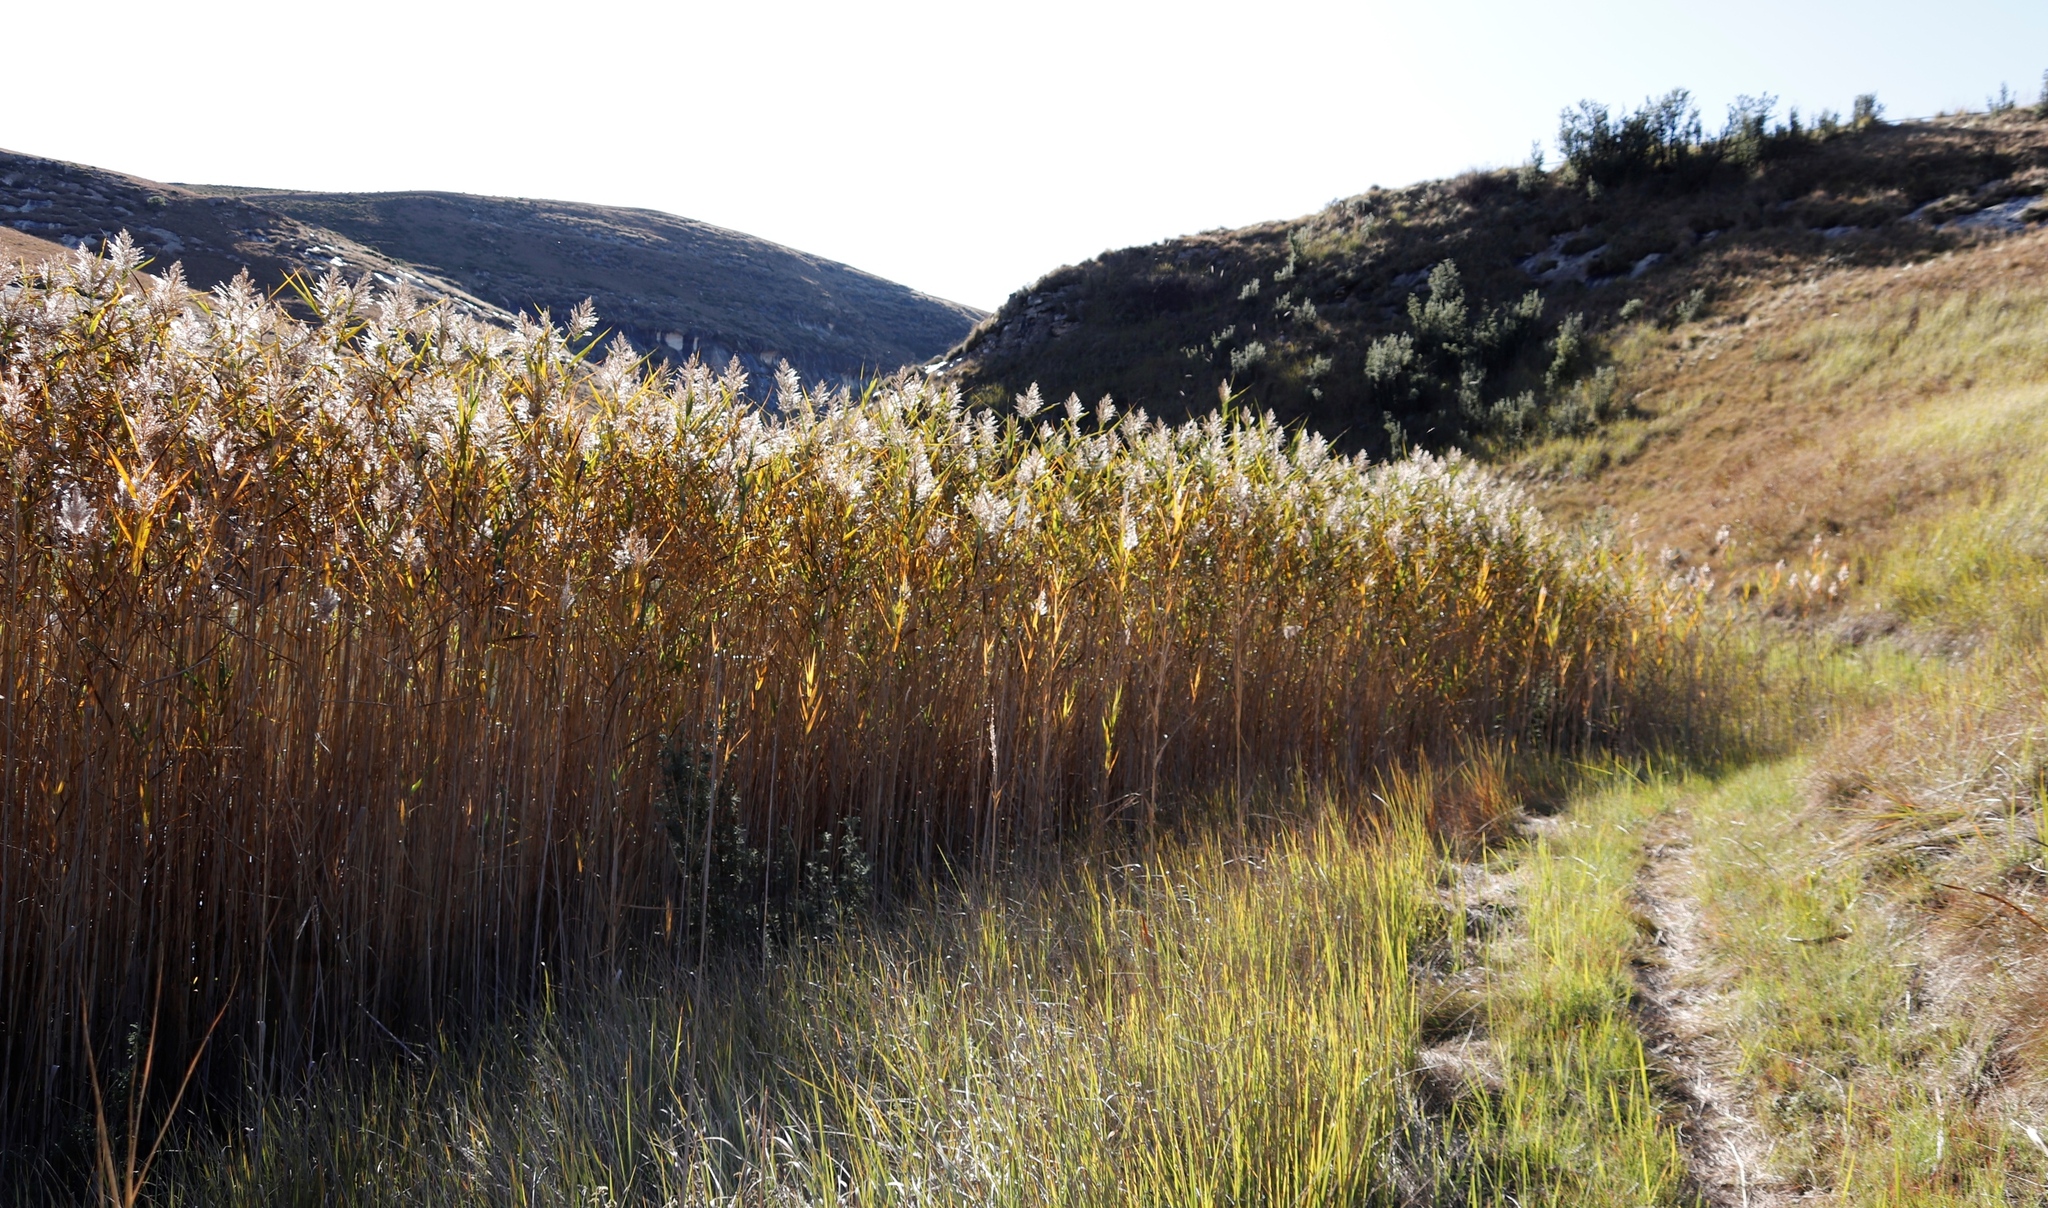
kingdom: Plantae
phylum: Tracheophyta
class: Liliopsida
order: Poales
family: Poaceae
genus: Phragmites
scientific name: Phragmites australis
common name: Common reed
